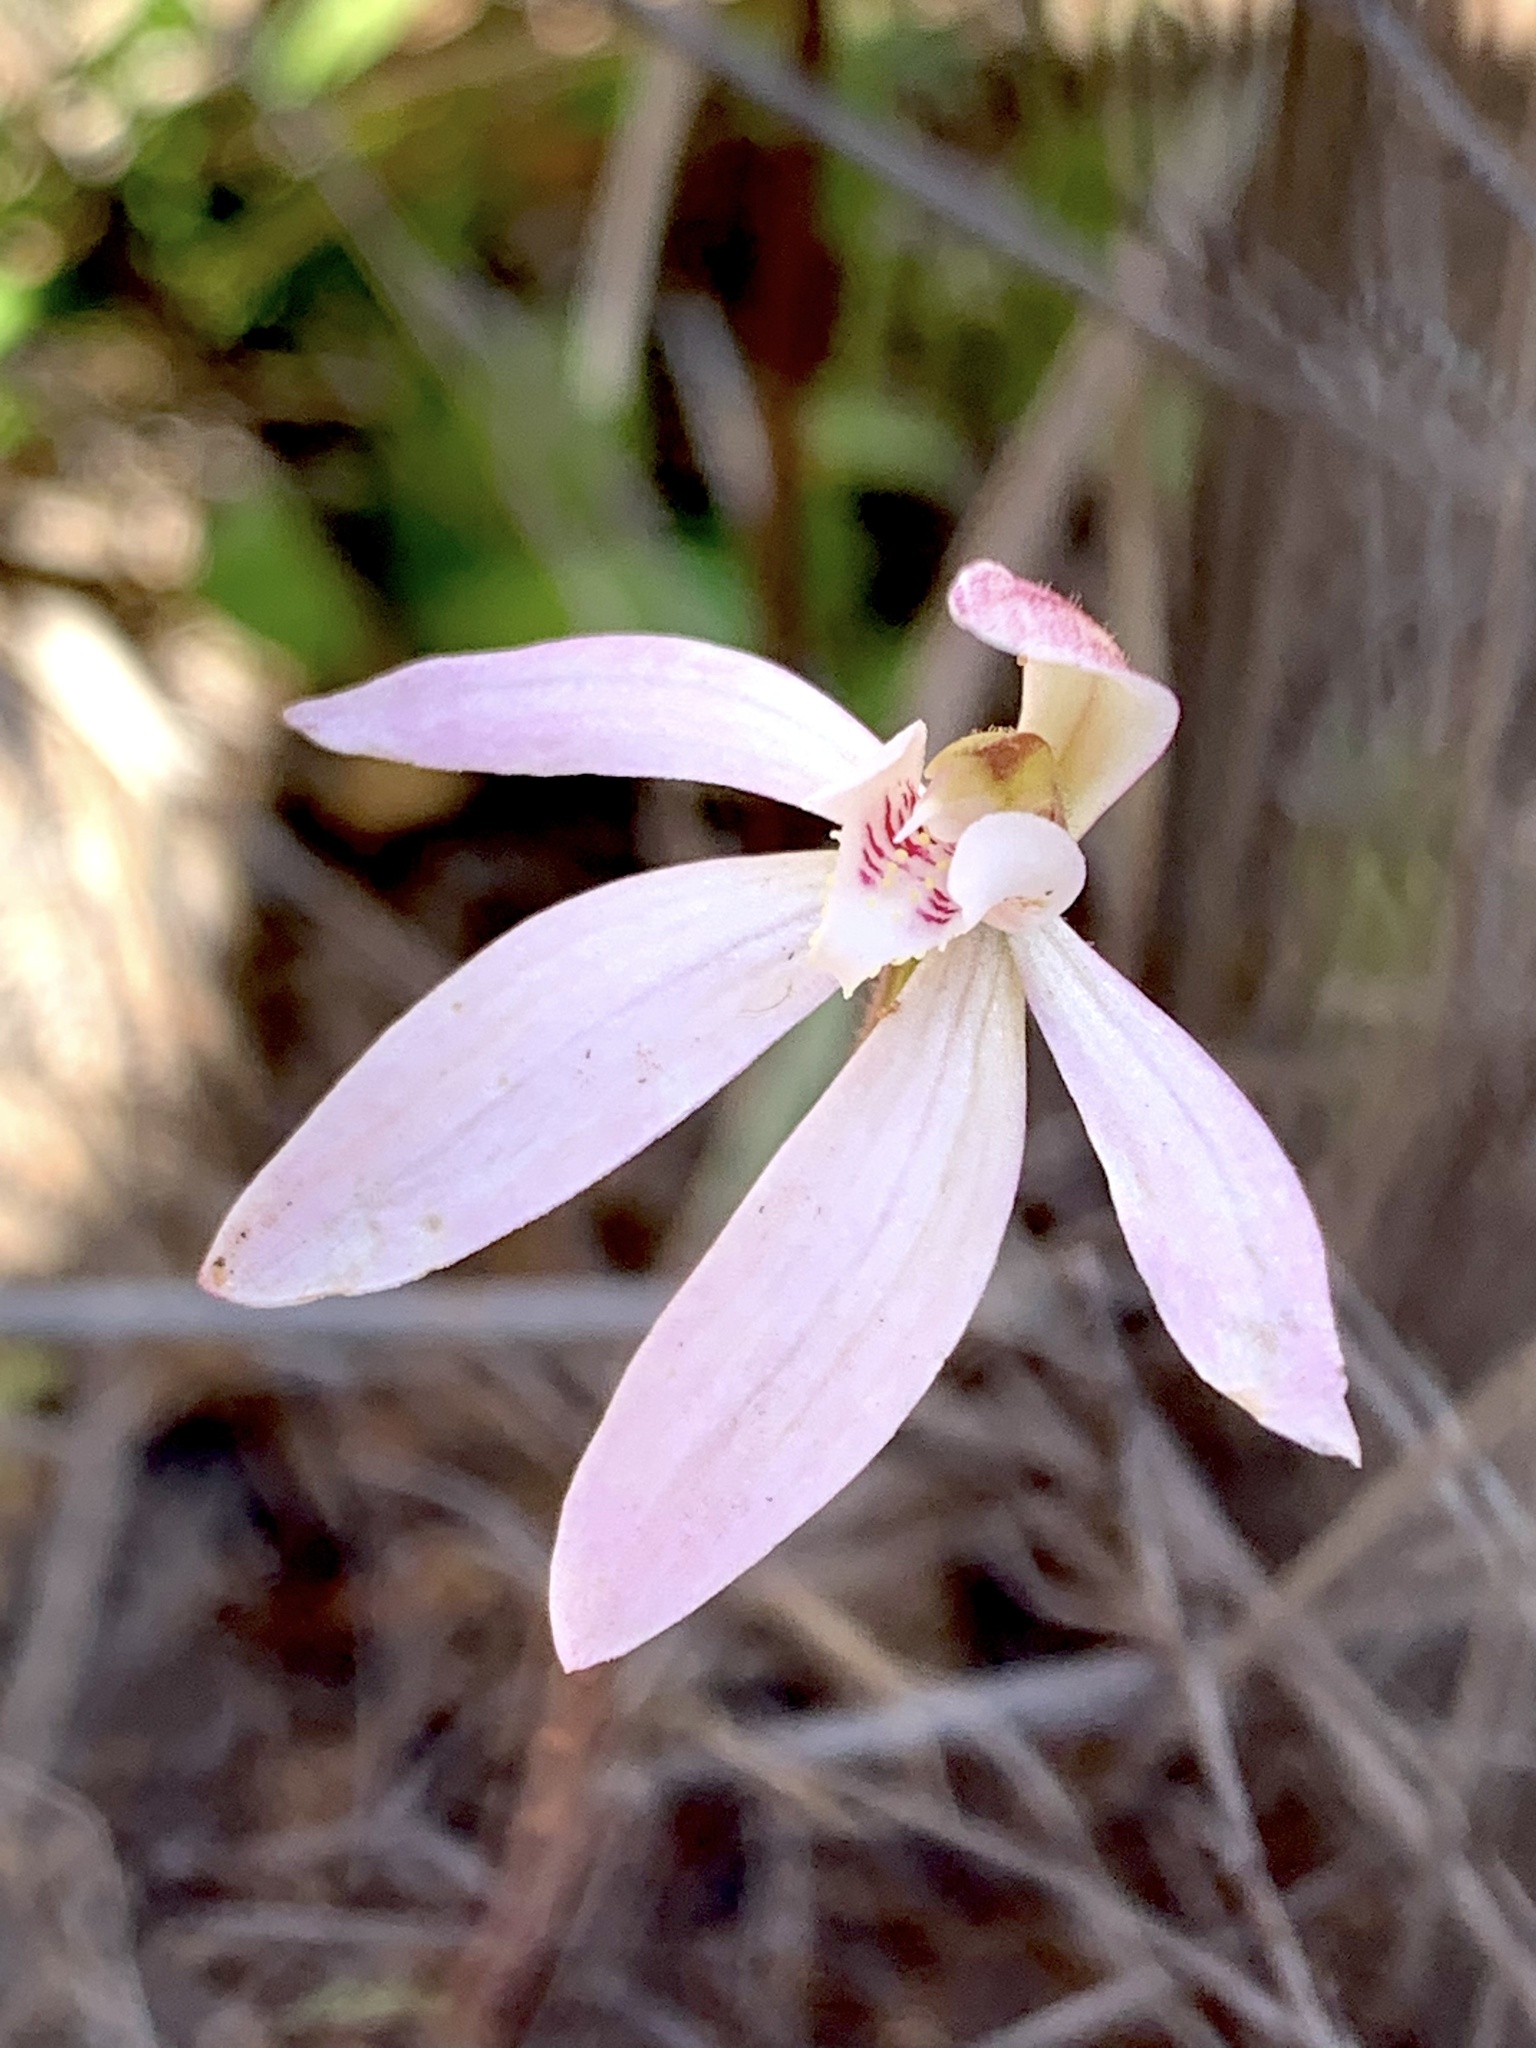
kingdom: Plantae
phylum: Tracheophyta
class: Liliopsida
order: Asparagales
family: Orchidaceae
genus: Caladenia
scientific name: Caladenia fuscata
